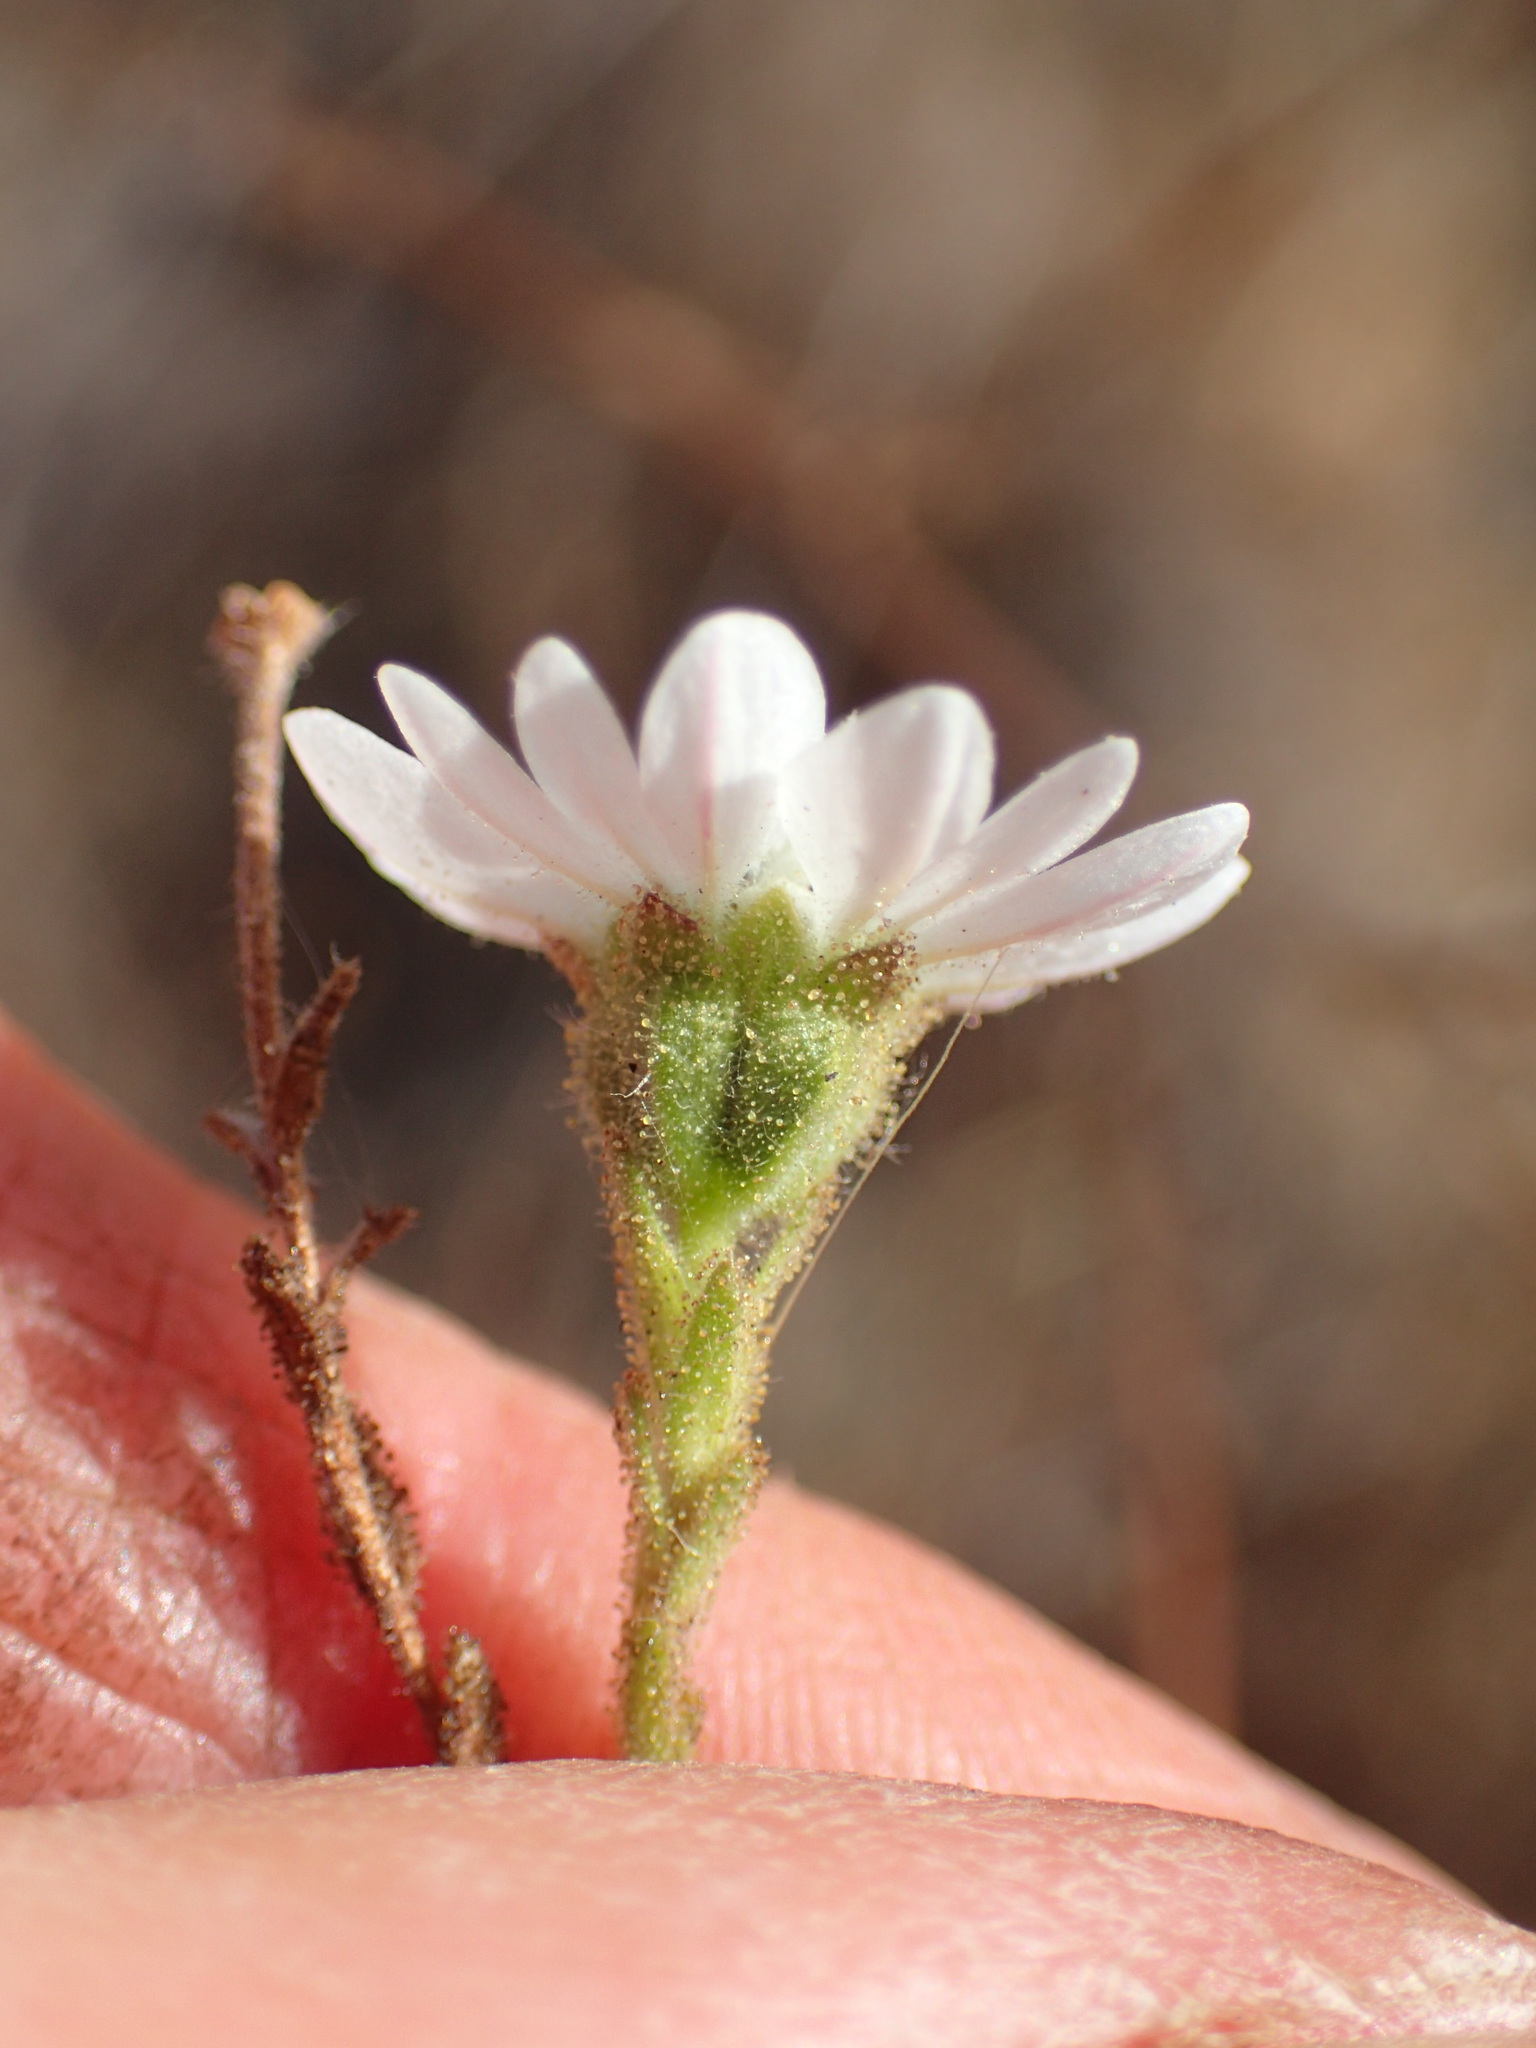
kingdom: Plantae
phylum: Tracheophyta
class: Magnoliopsida
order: Asterales
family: Asteraceae
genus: Hemizonia
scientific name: Hemizonia congesta
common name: Hayfield tarweed
